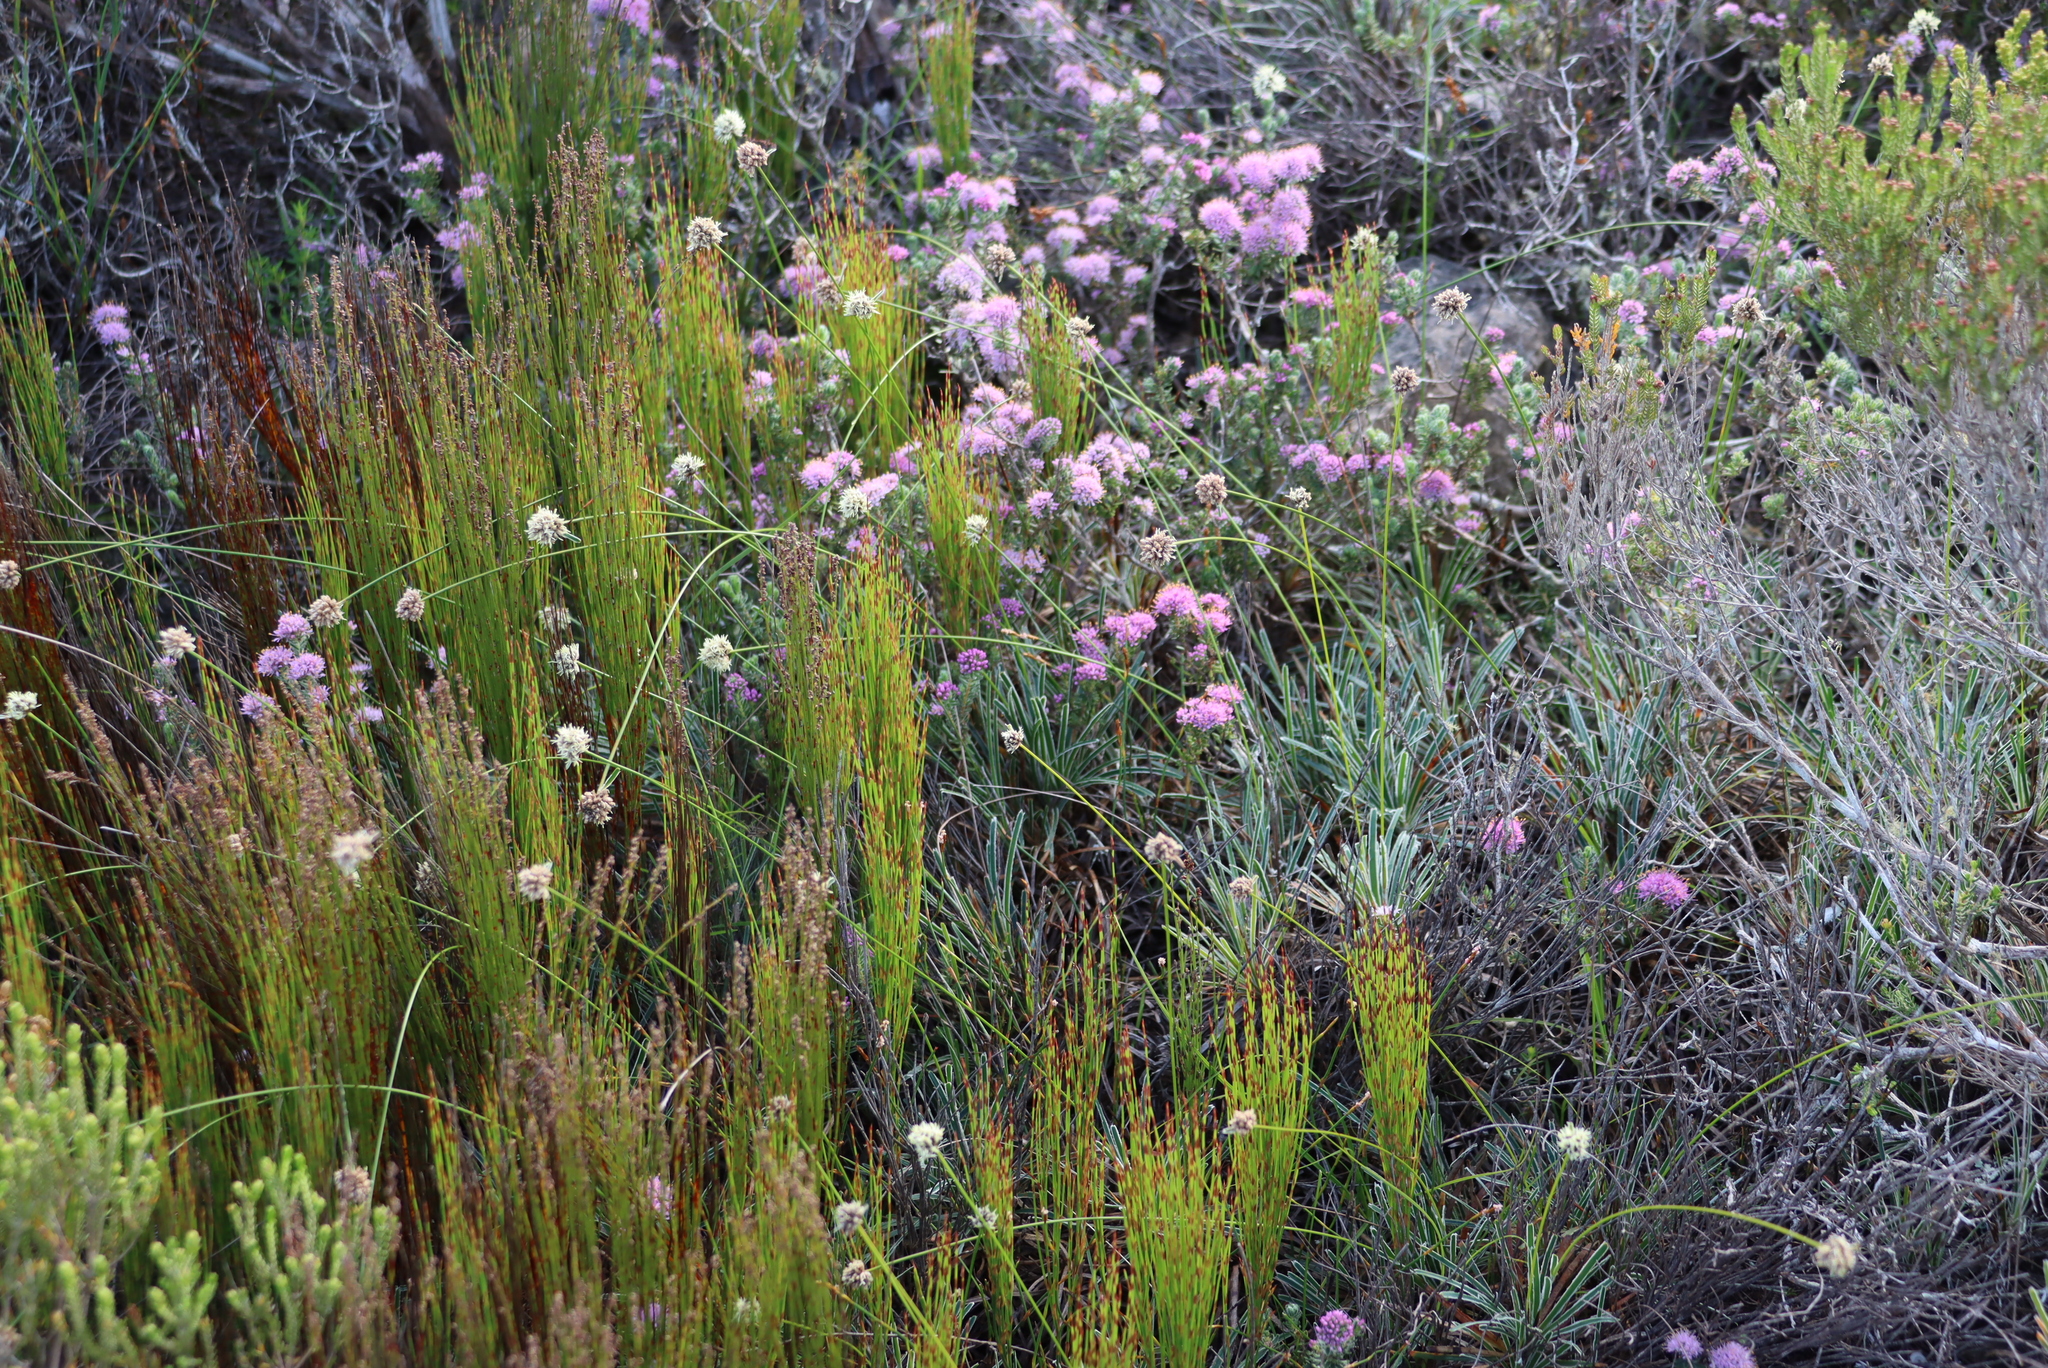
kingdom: Plantae
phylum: Tracheophyta
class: Liliopsida
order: Poales
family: Cyperaceae
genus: Ficinia
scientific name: Ficinia truncata
